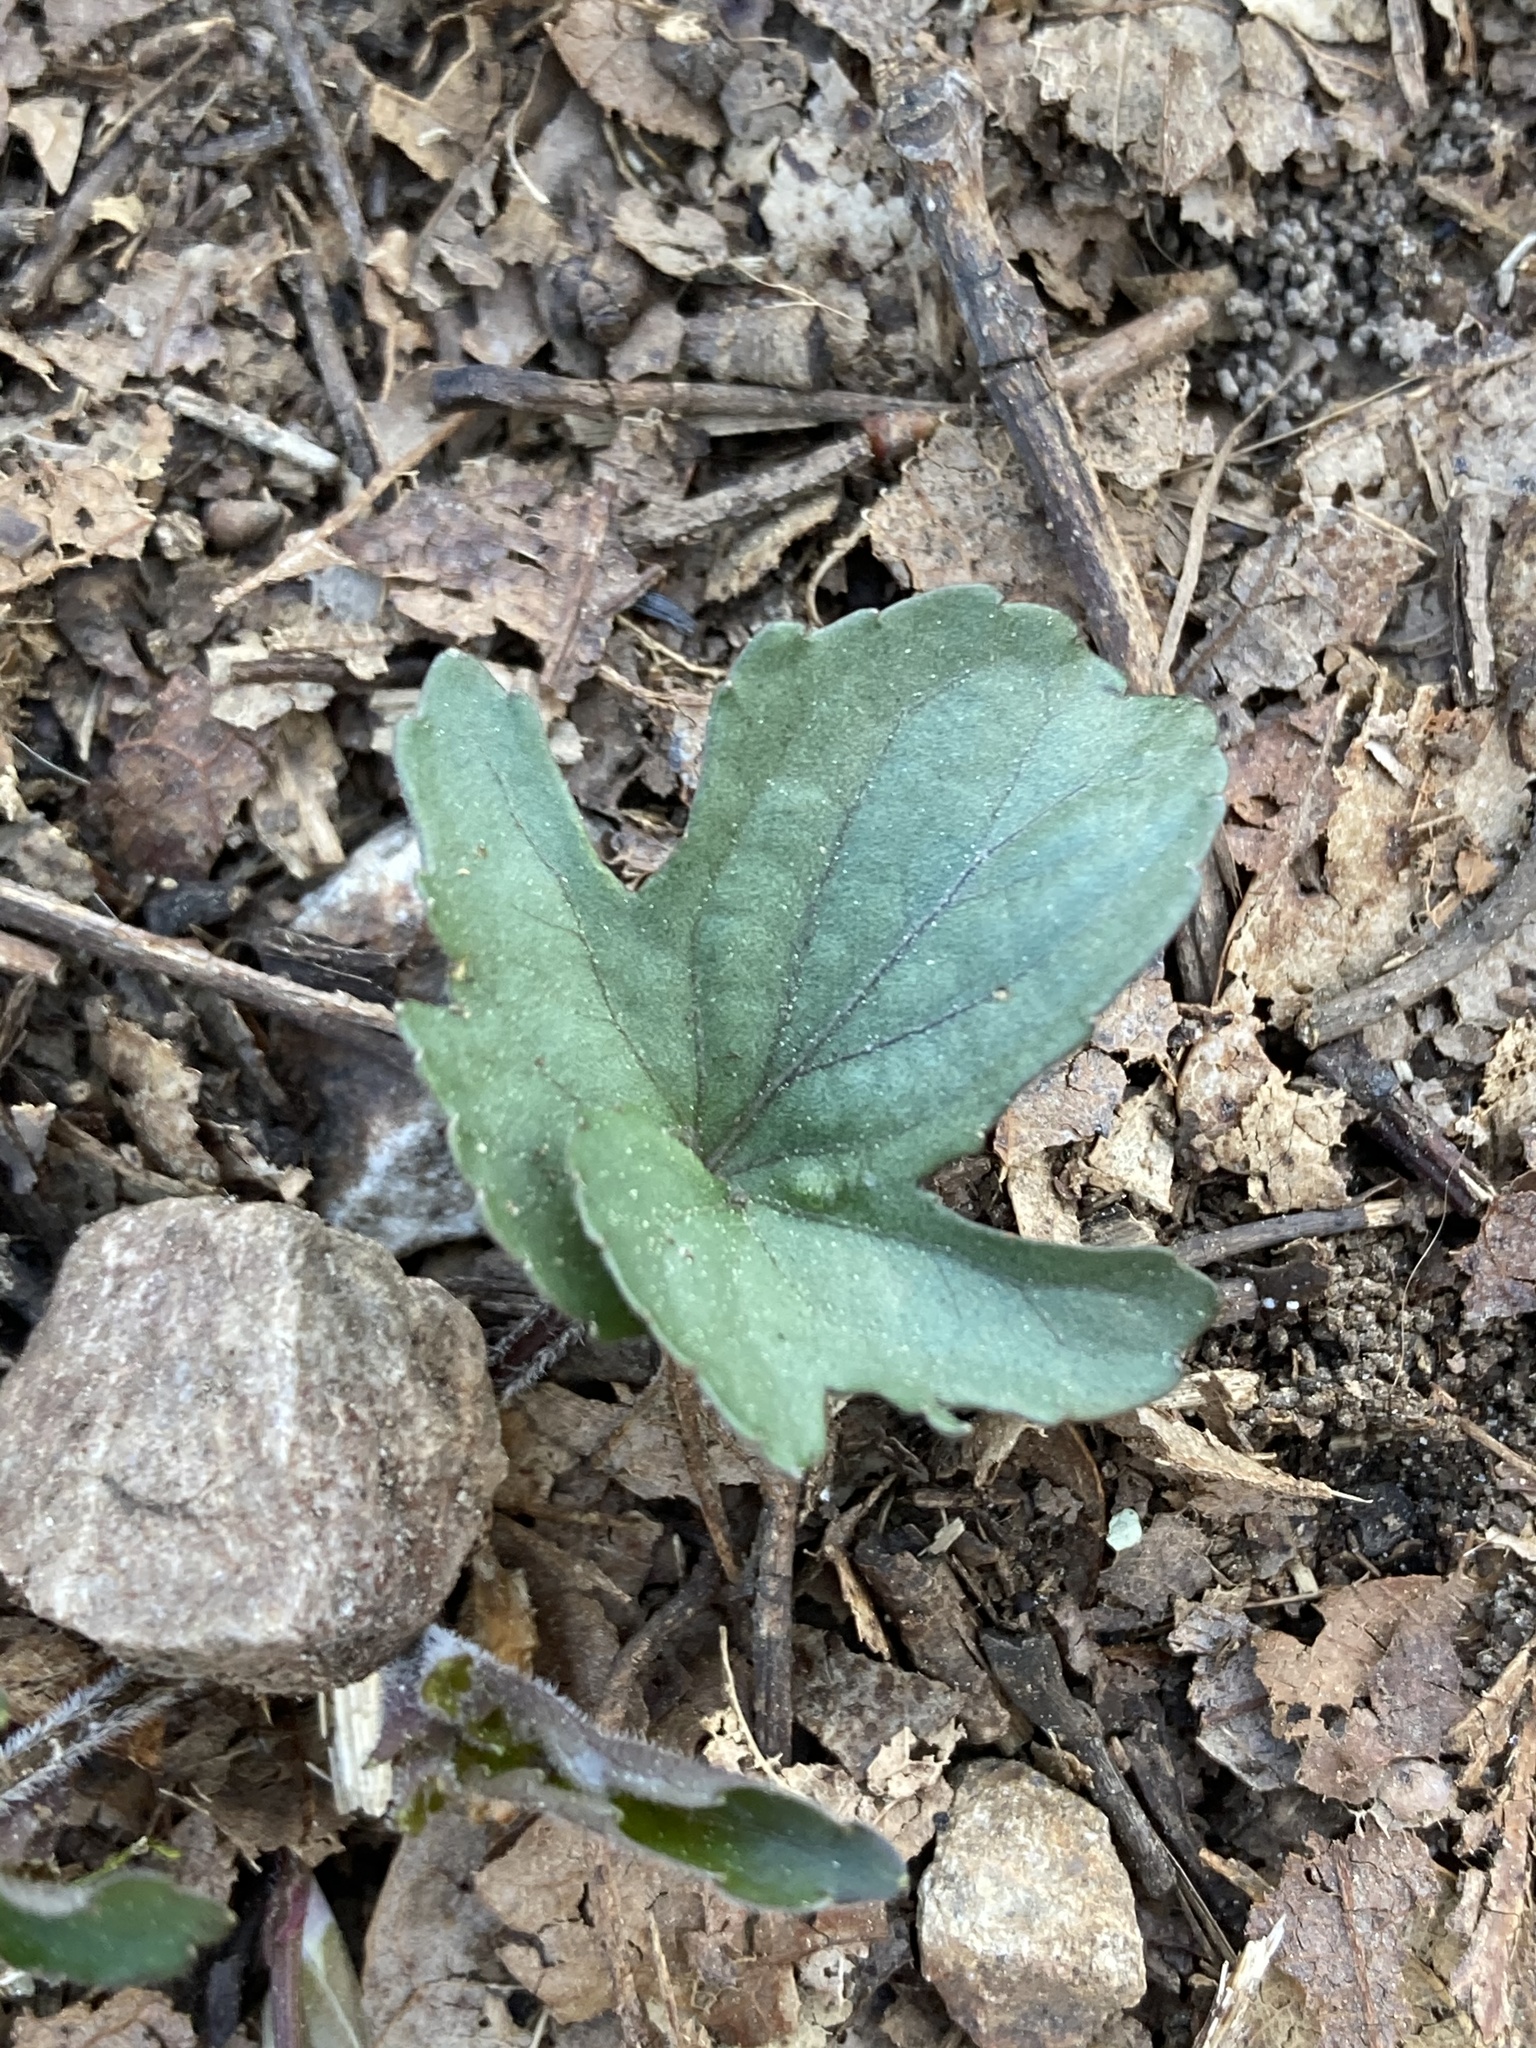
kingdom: Plantae
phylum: Tracheophyta
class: Magnoliopsida
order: Malpighiales
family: Violaceae
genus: Viola
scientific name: Viola palmata
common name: Early blue violet
